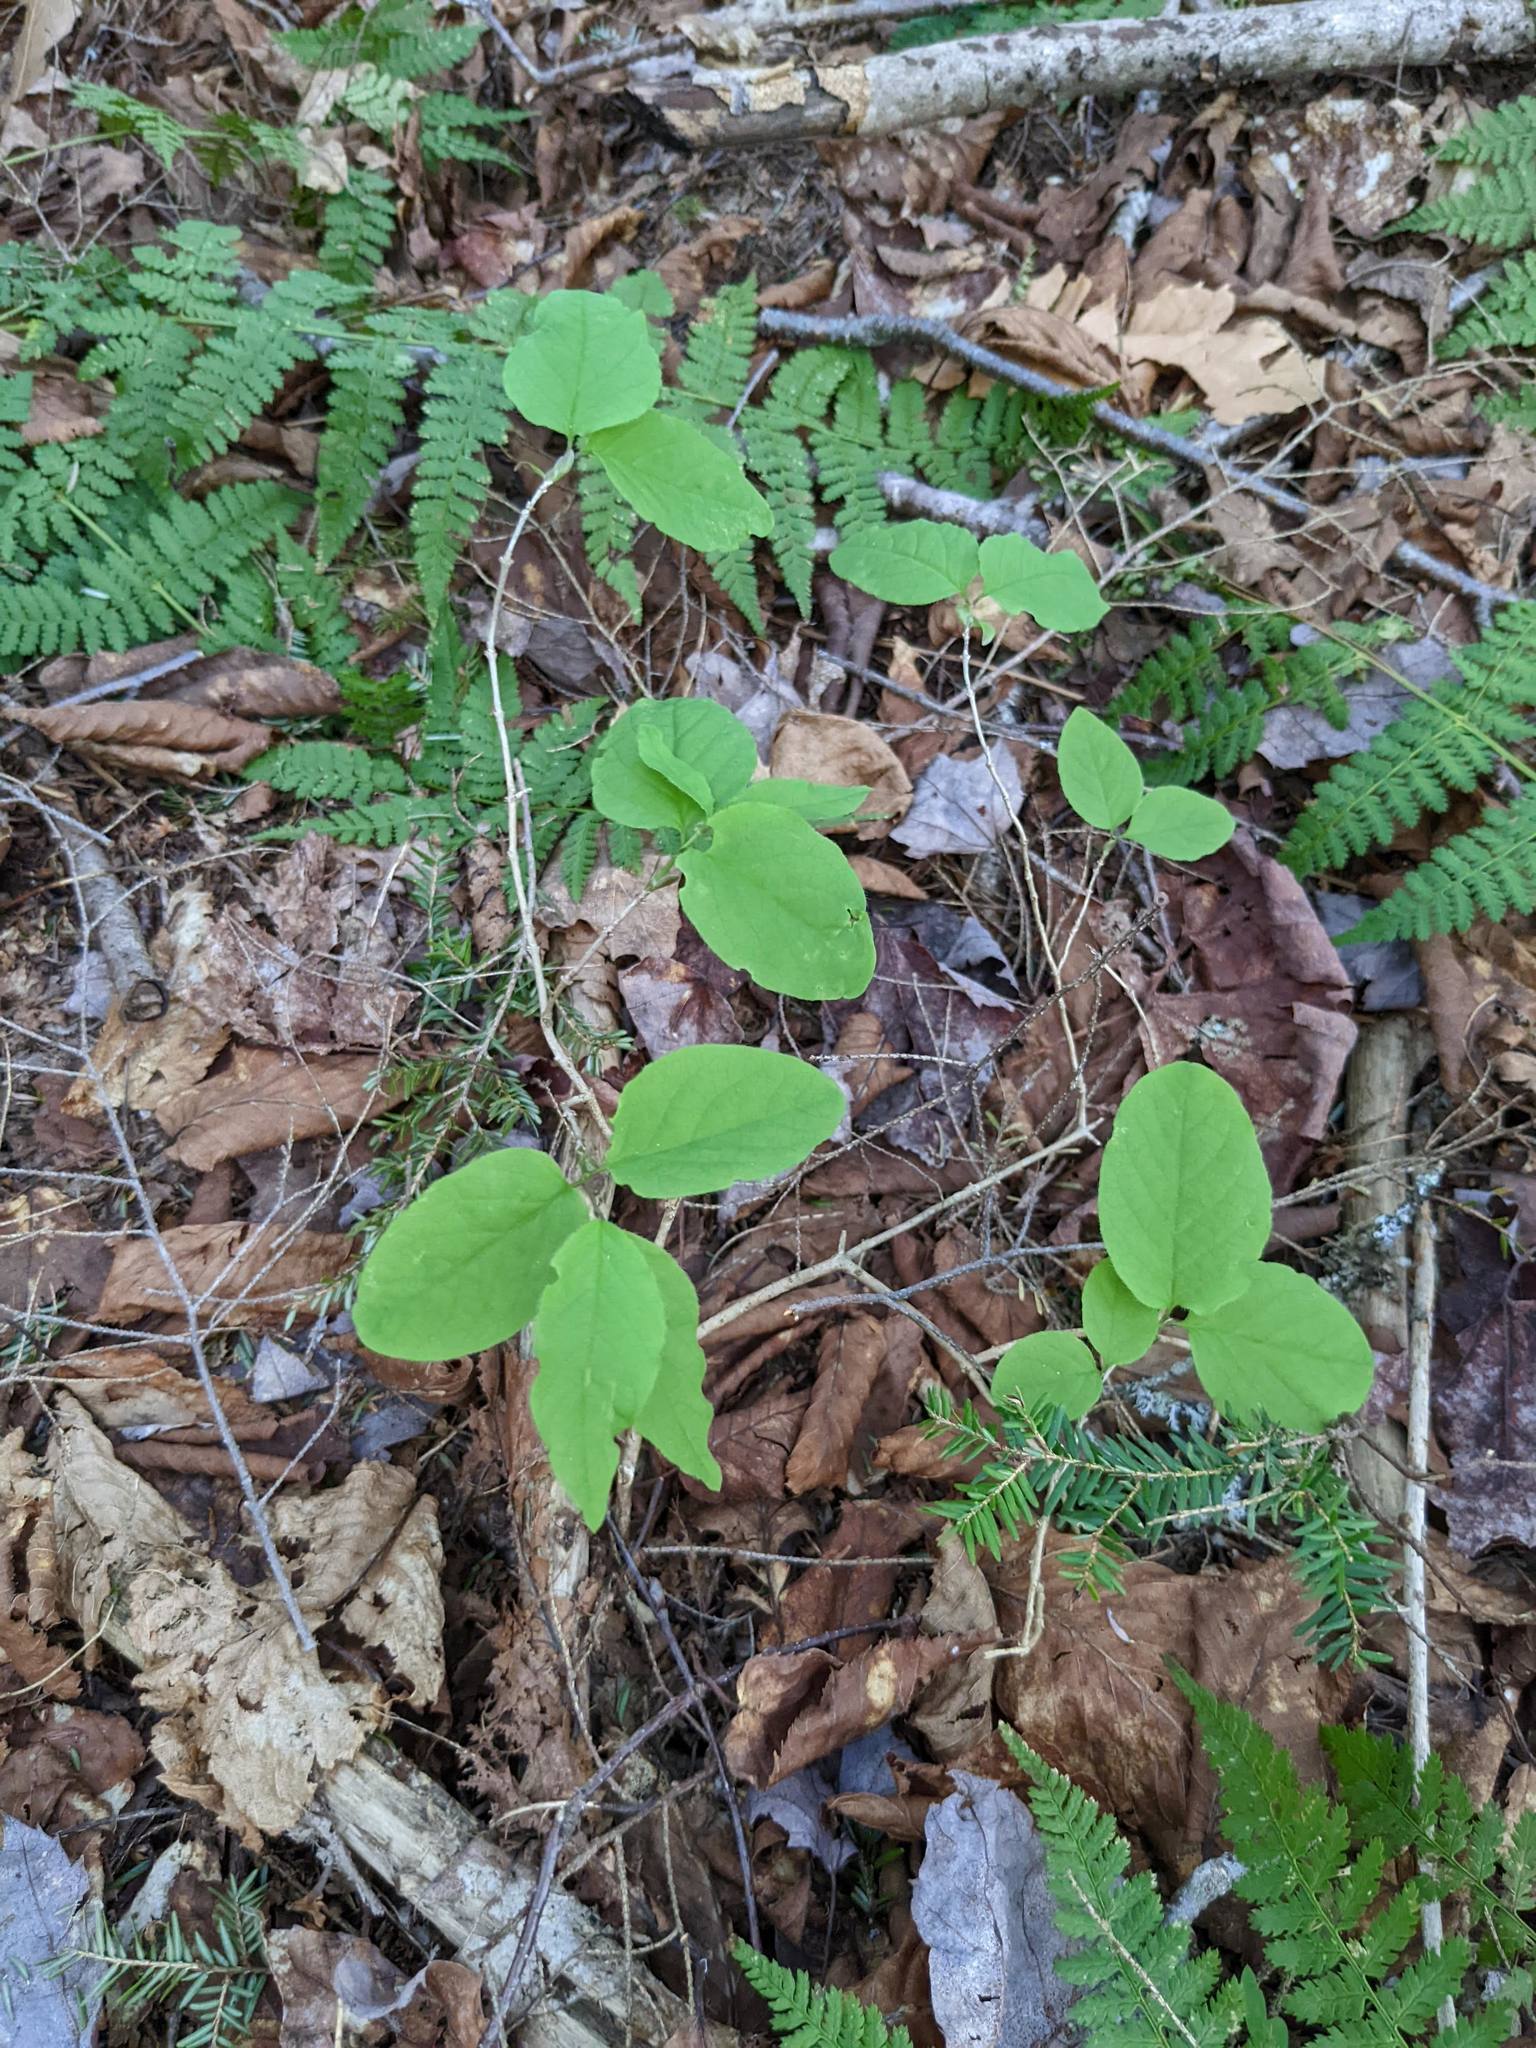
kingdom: Plantae
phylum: Tracheophyta
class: Magnoliopsida
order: Dipsacales
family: Caprifoliaceae
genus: Lonicera
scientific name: Lonicera canadensis
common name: American fly-honeysuckle
